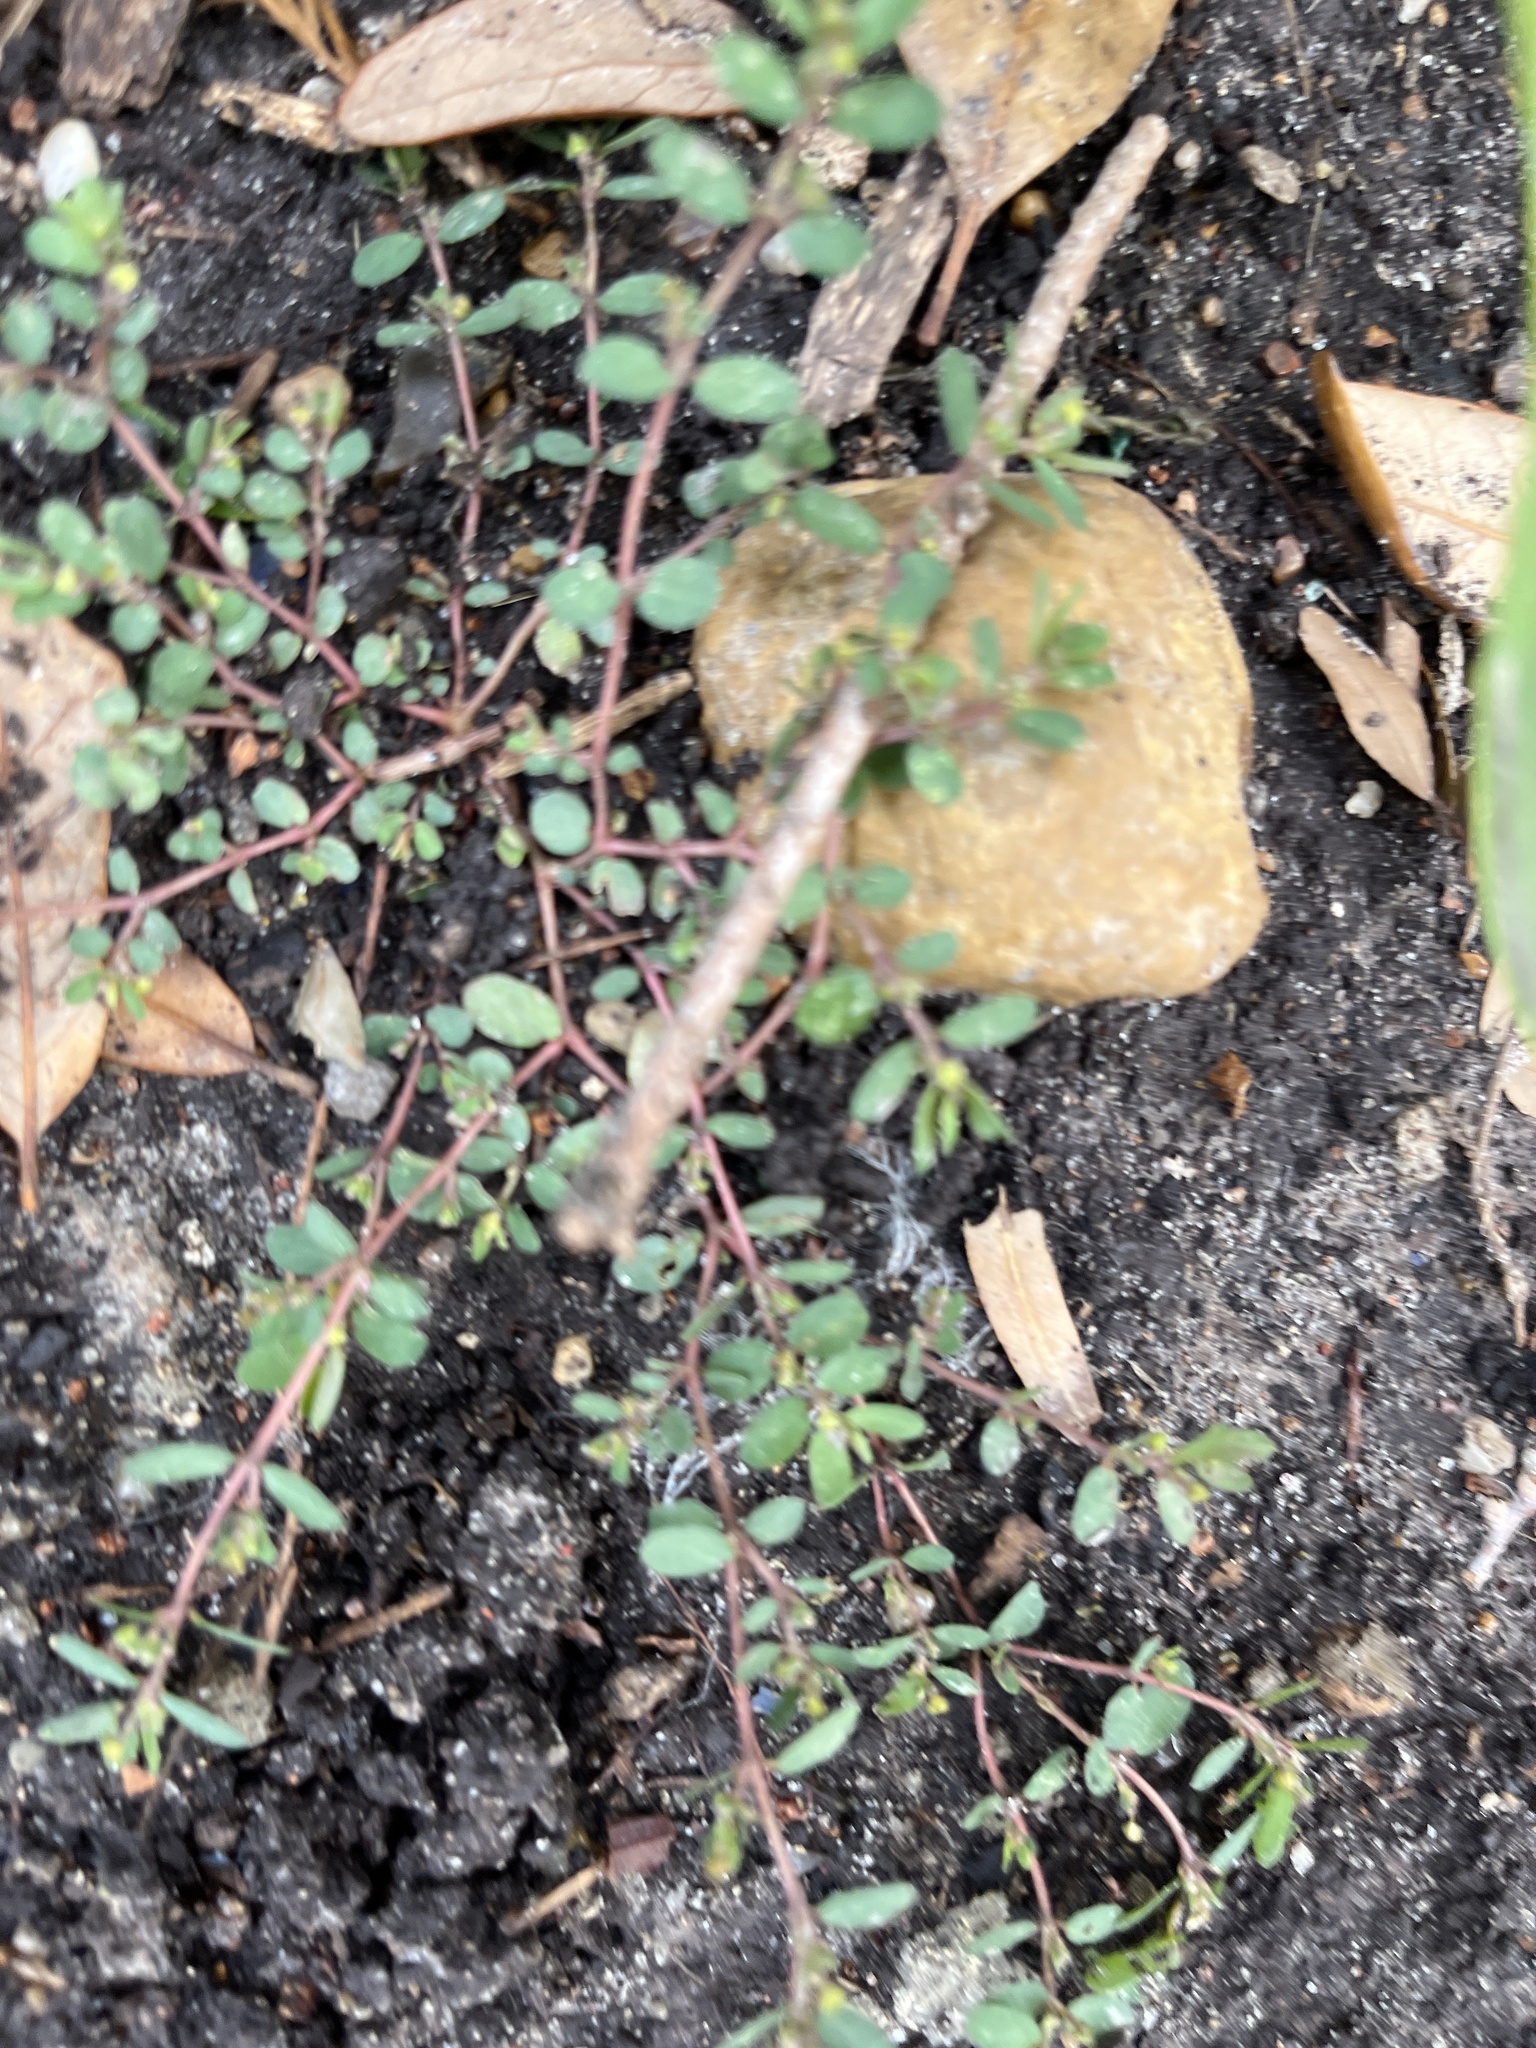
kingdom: Plantae
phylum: Tracheophyta
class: Magnoliopsida
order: Malpighiales
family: Euphorbiaceae
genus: Euphorbia
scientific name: Euphorbia prostrata
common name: Prostrate sandmat
